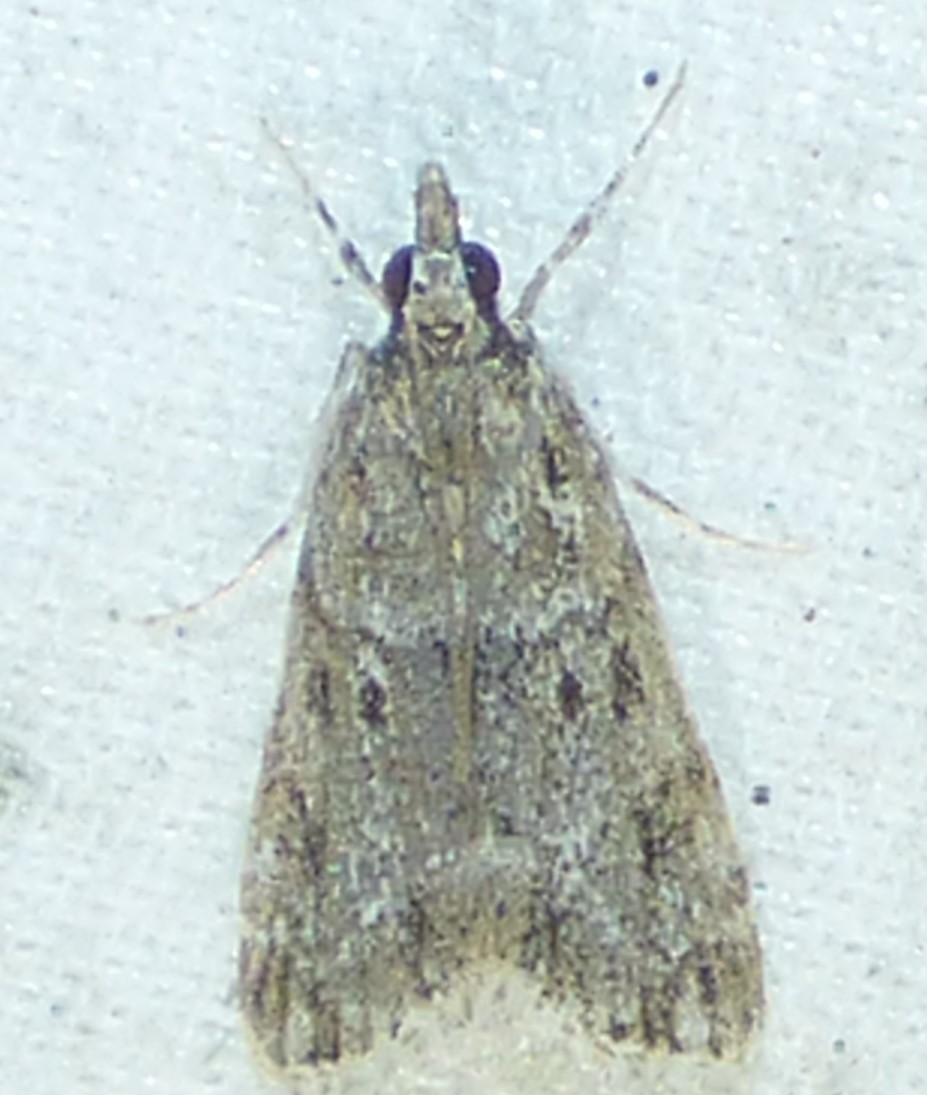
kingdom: Animalia
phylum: Arthropoda
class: Insecta
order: Lepidoptera
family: Crambidae
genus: Eudonia
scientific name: Eudonia heterosalis
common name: Mcdunnough's eudonia
